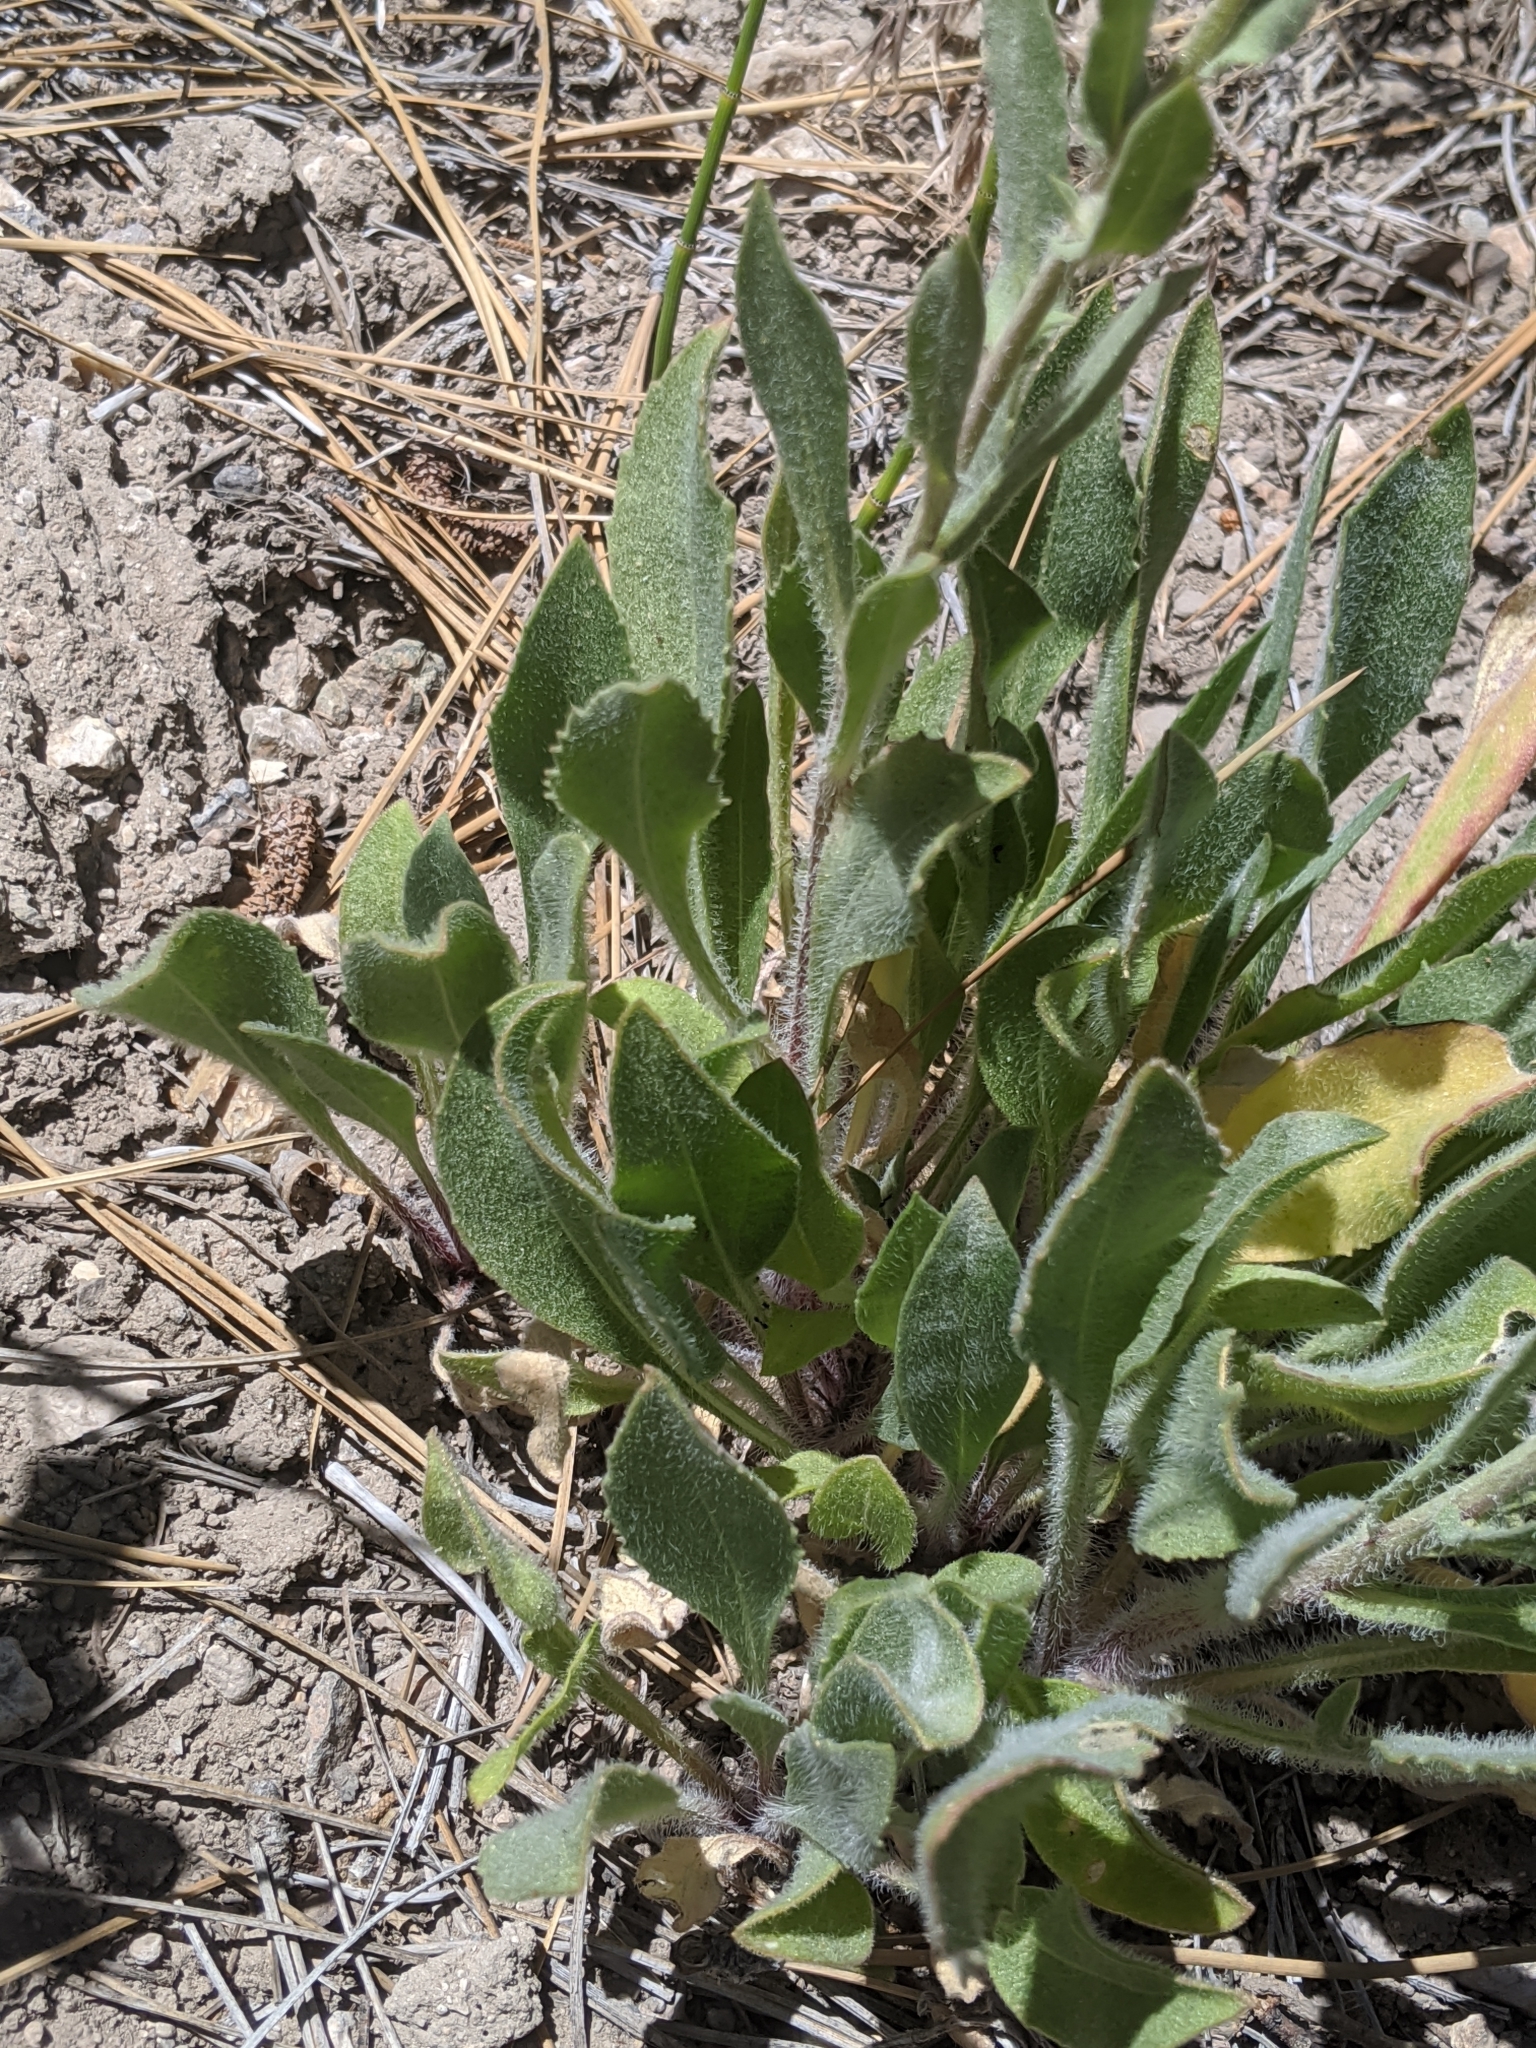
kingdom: Plantae
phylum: Tracheophyta
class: Magnoliopsida
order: Asterales
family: Asteraceae
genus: Gaillardia
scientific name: Gaillardia pulchella
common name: Firewheel
